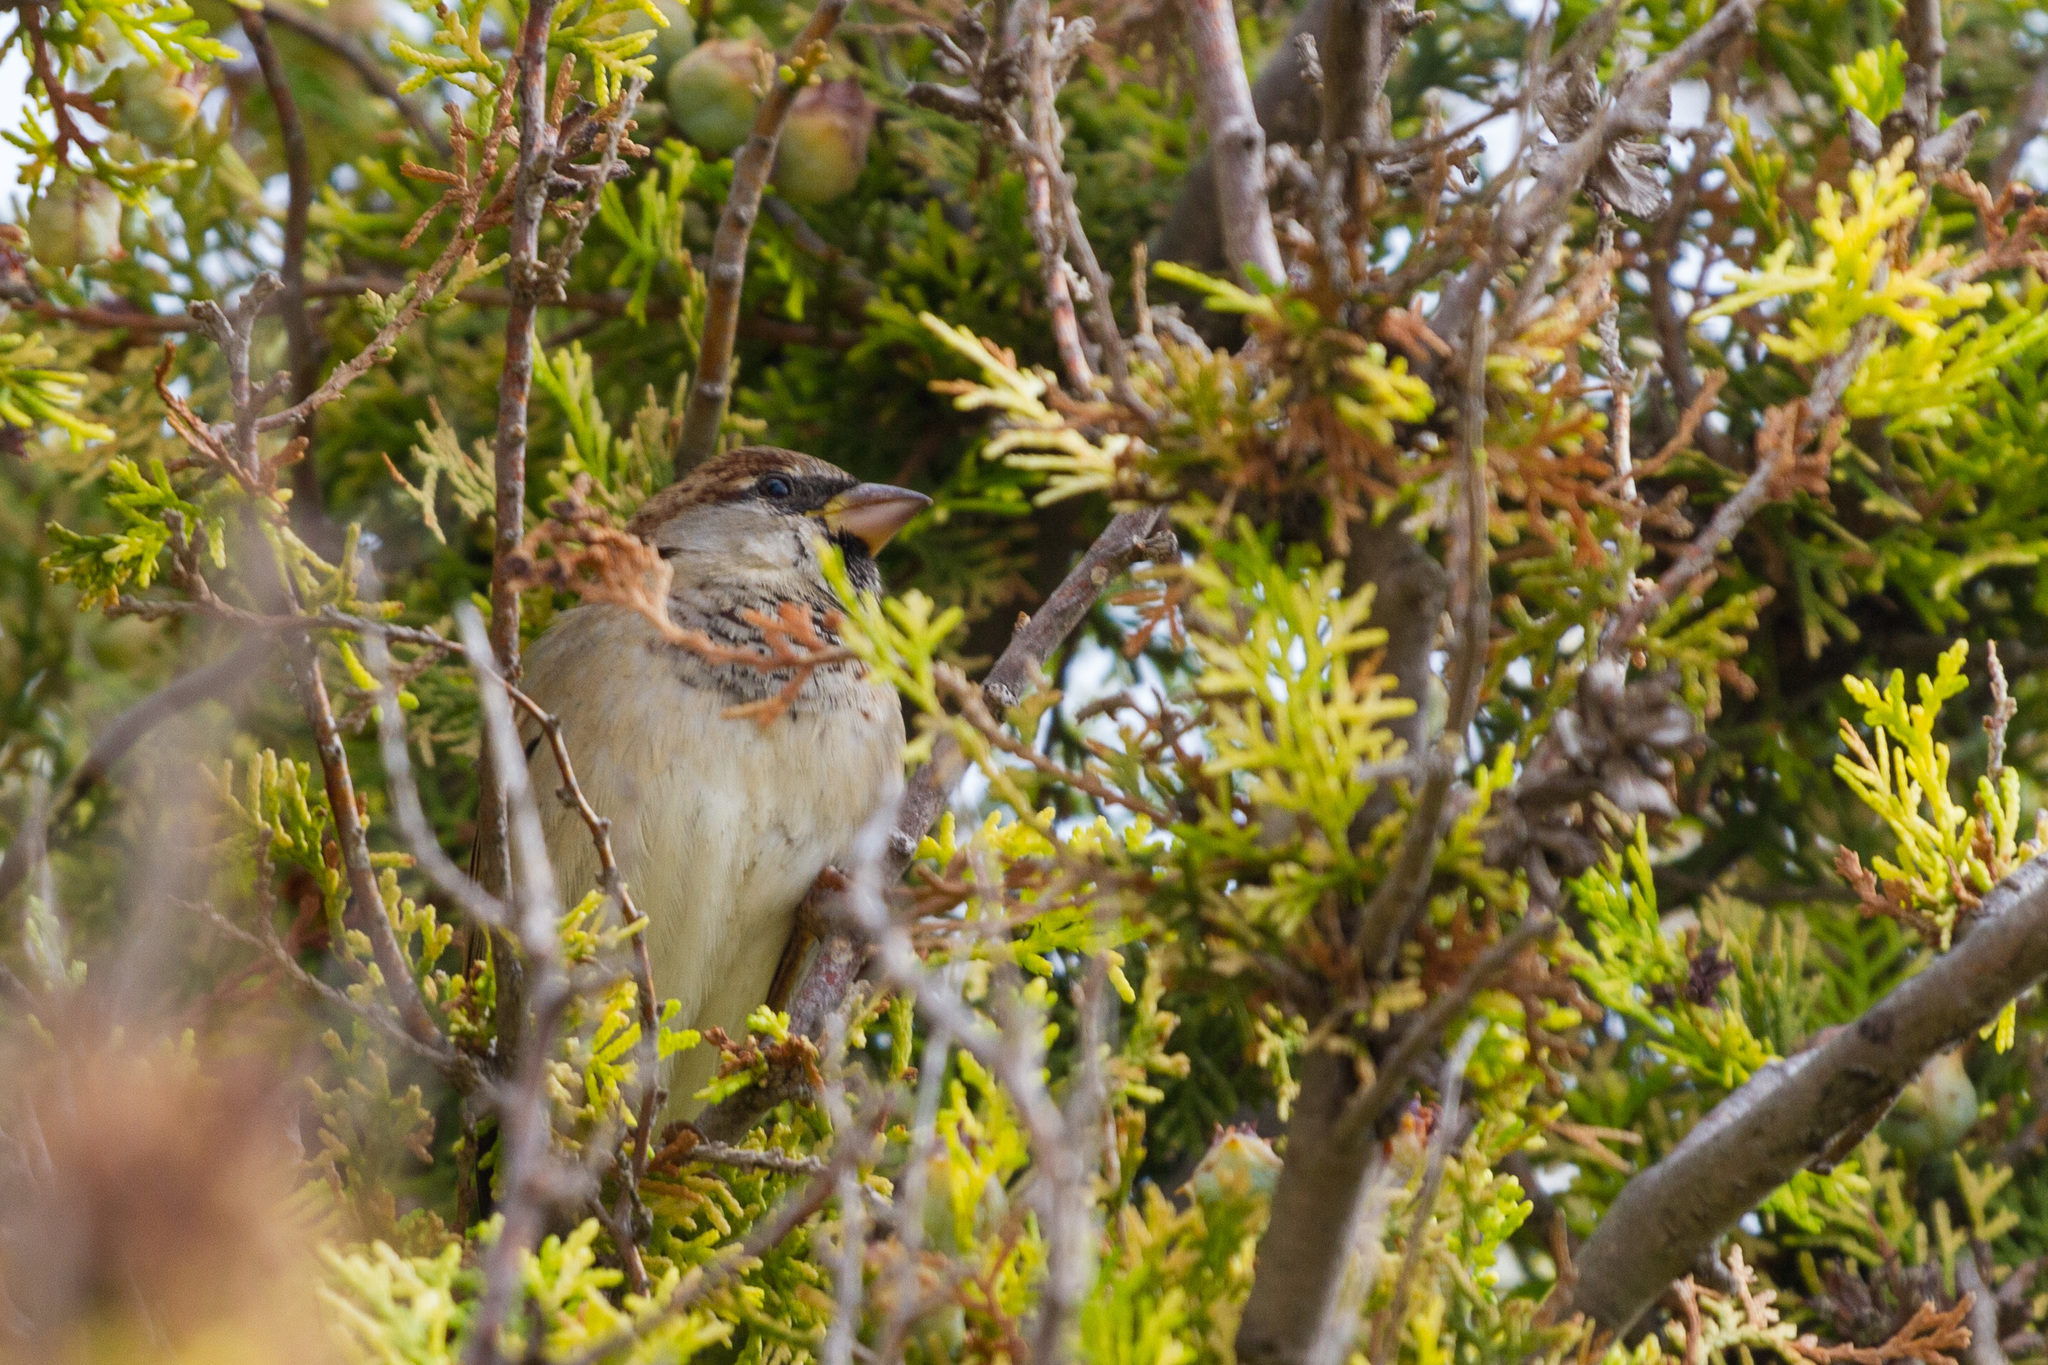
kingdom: Animalia
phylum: Chordata
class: Aves
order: Passeriformes
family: Passeridae
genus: Passer
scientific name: Passer domesticus
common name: House sparrow
